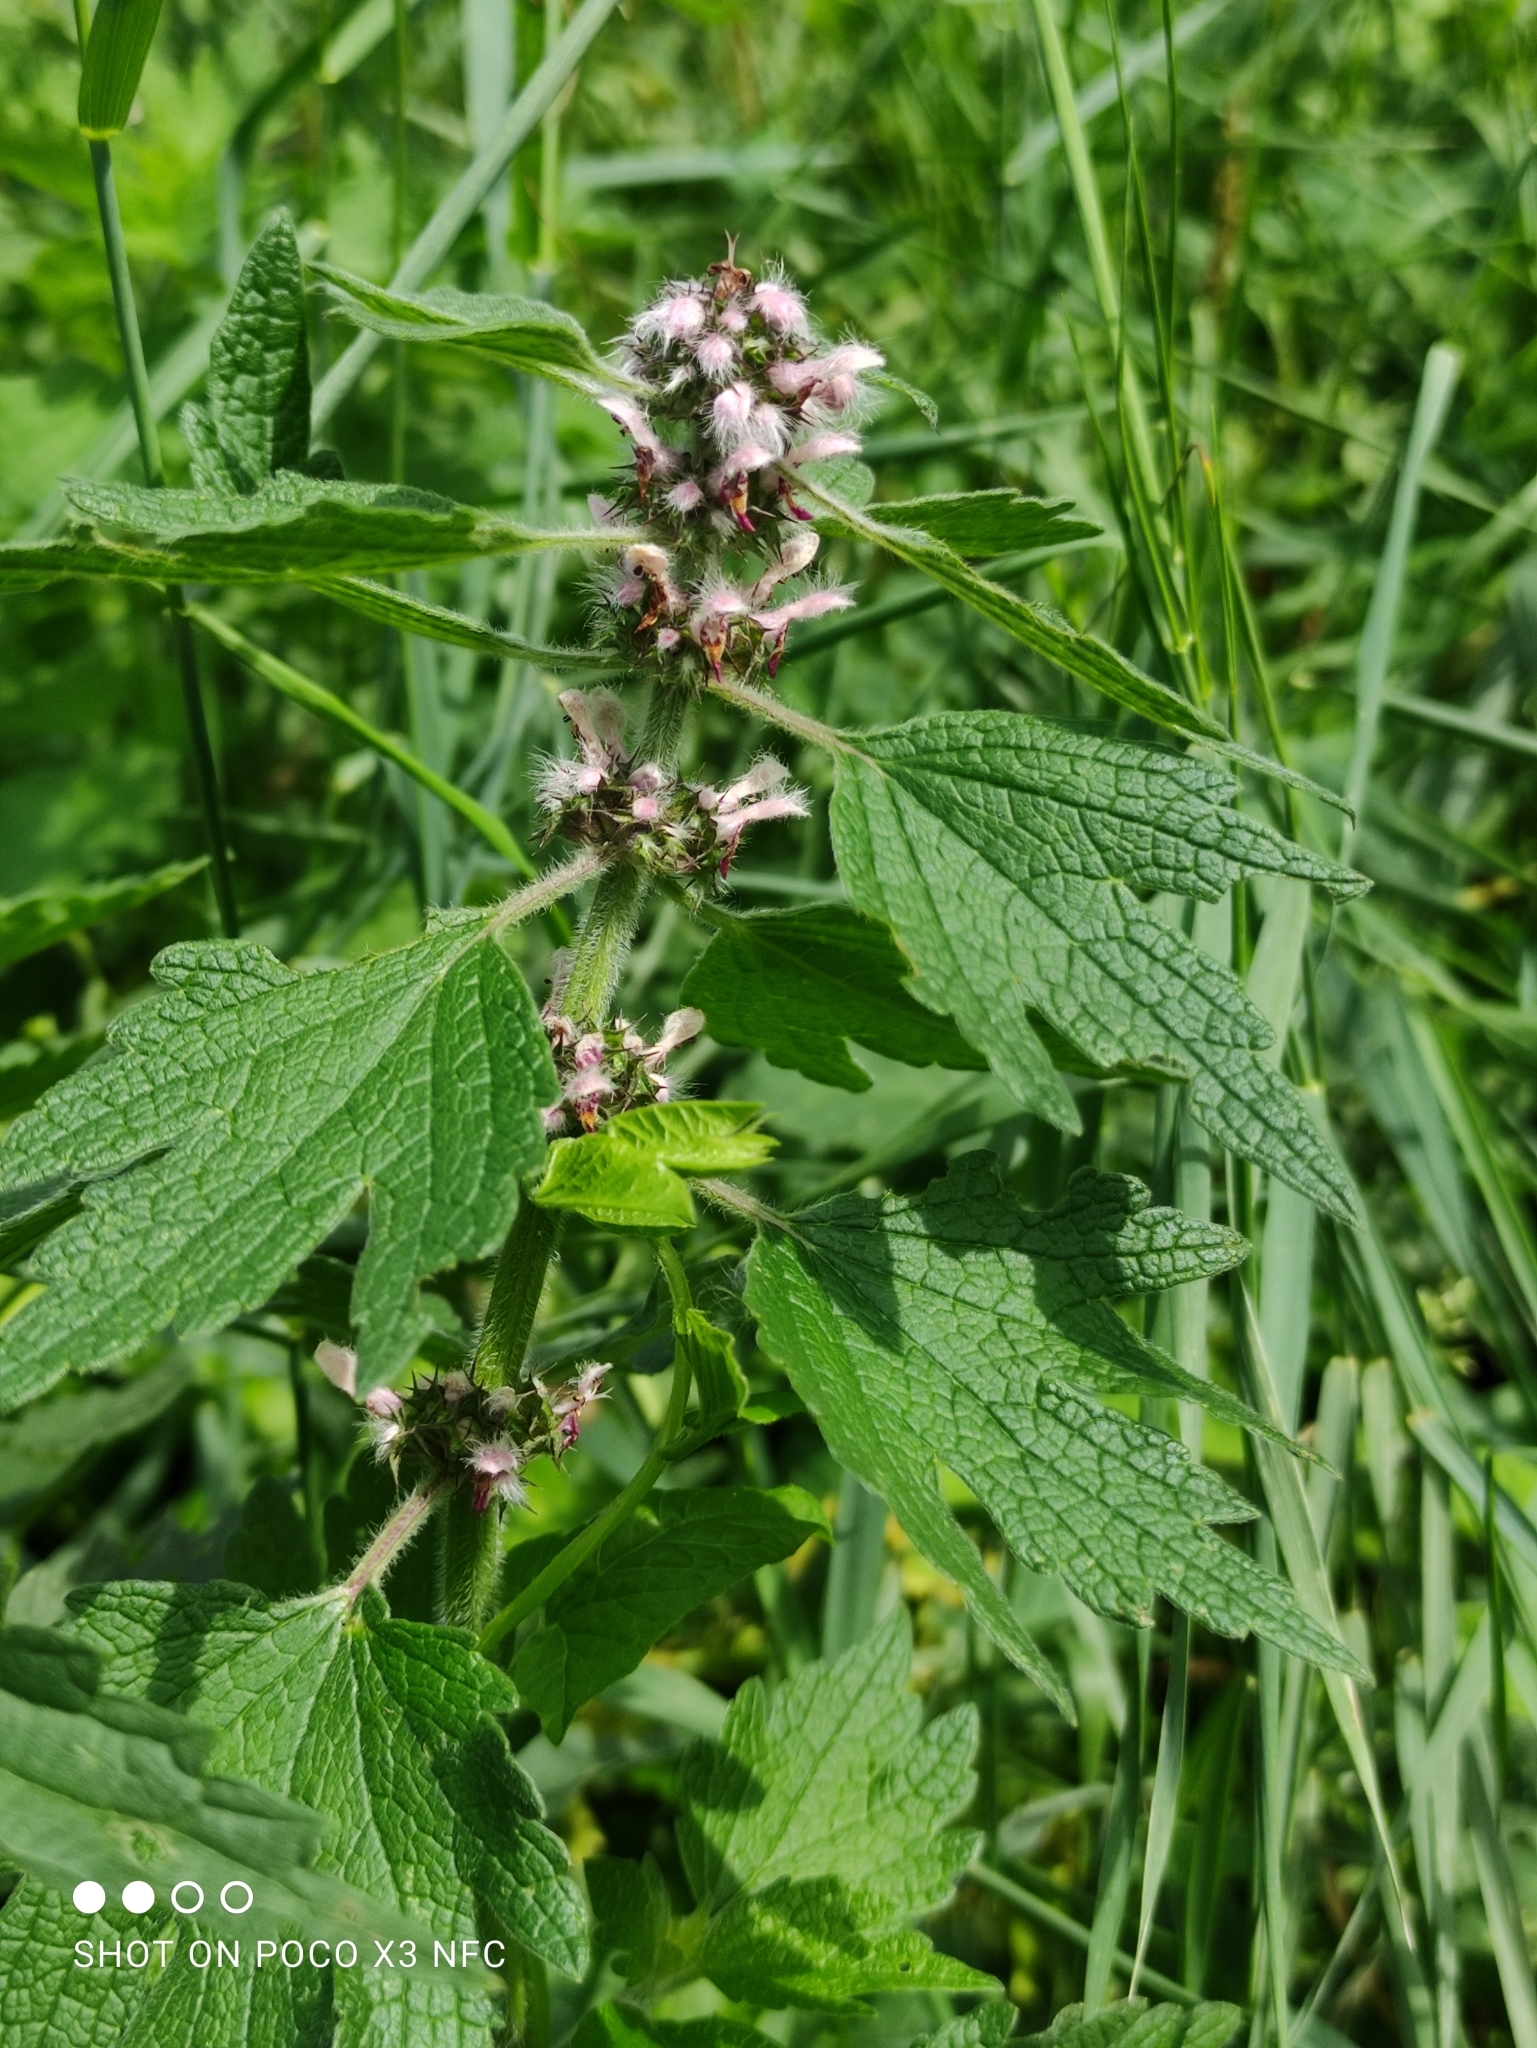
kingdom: Plantae
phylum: Tracheophyta
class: Magnoliopsida
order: Lamiales
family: Lamiaceae
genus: Leonurus
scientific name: Leonurus quinquelobatus
